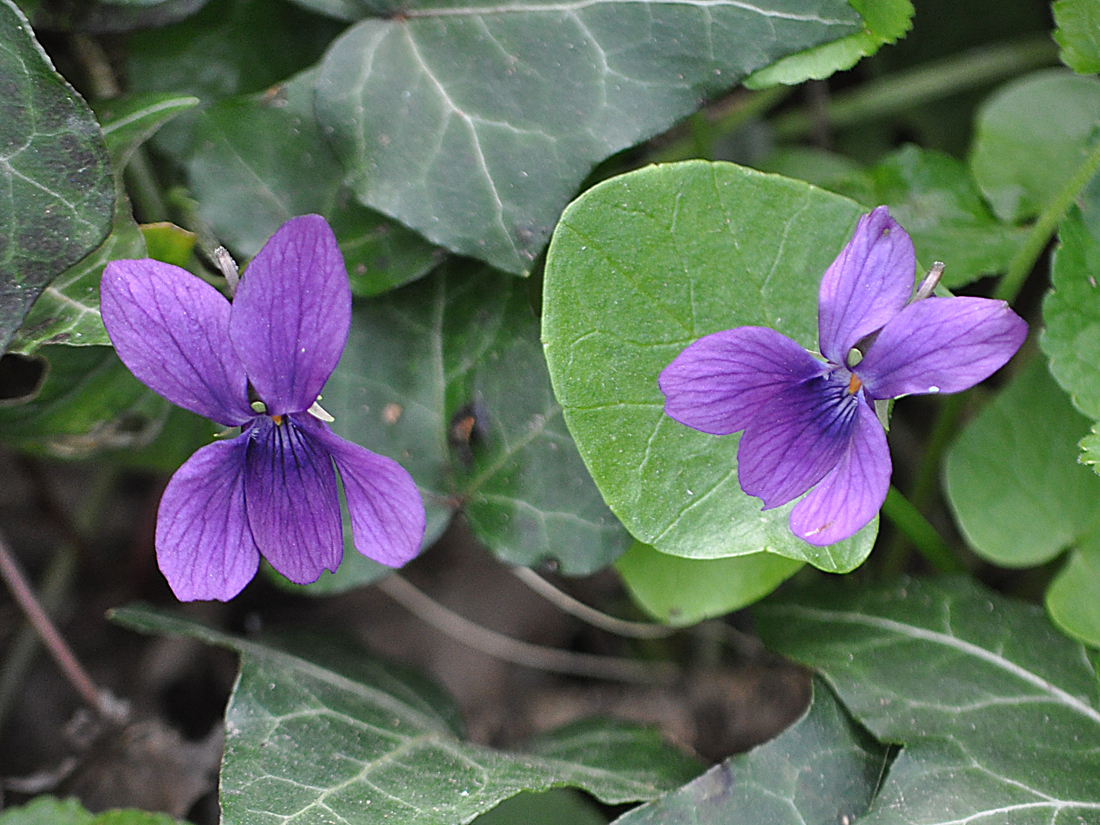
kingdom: Plantae
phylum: Tracheophyta
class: Magnoliopsida
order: Malpighiales
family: Violaceae
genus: Viola
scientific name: Viola odorata
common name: Sweet violet
